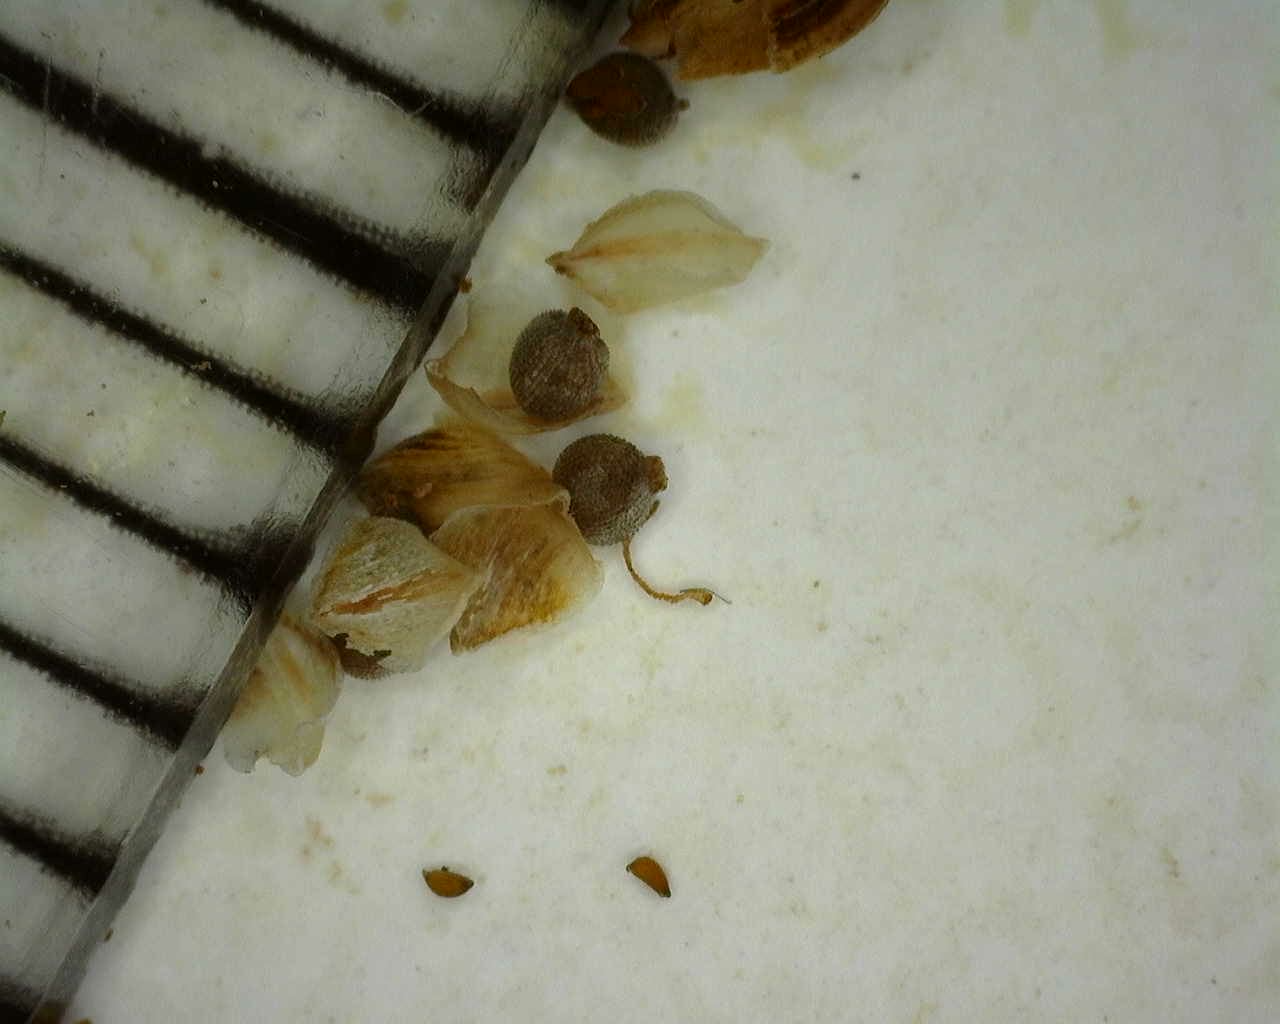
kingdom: Plantae
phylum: Tracheophyta
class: Liliopsida
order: Poales
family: Cyperaceae
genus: Isolepis
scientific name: Isolepis cernua
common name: Slender club-rush
